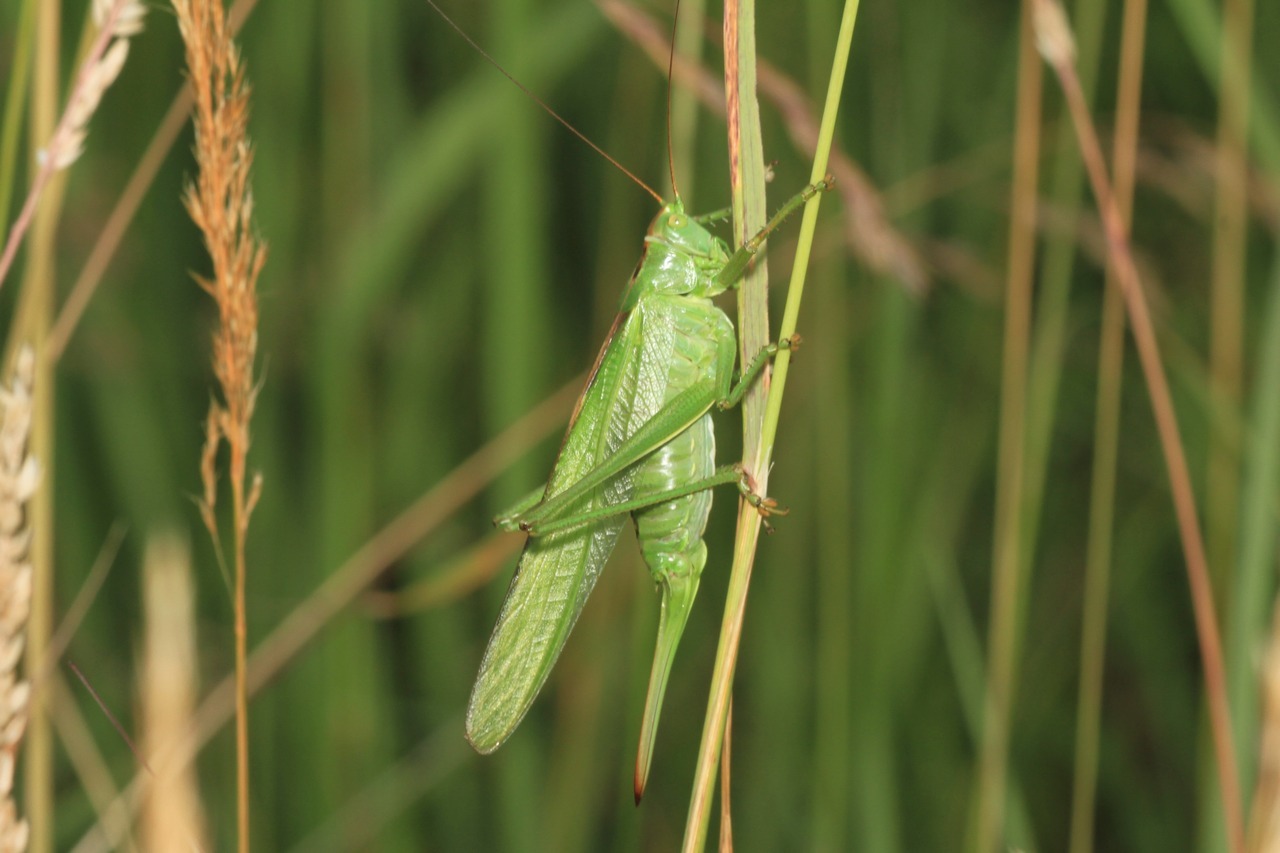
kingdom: Animalia
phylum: Arthropoda
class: Insecta
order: Orthoptera
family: Tettigoniidae
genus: Tettigonia
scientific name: Tettigonia viridissima
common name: Great green bush-cricket
